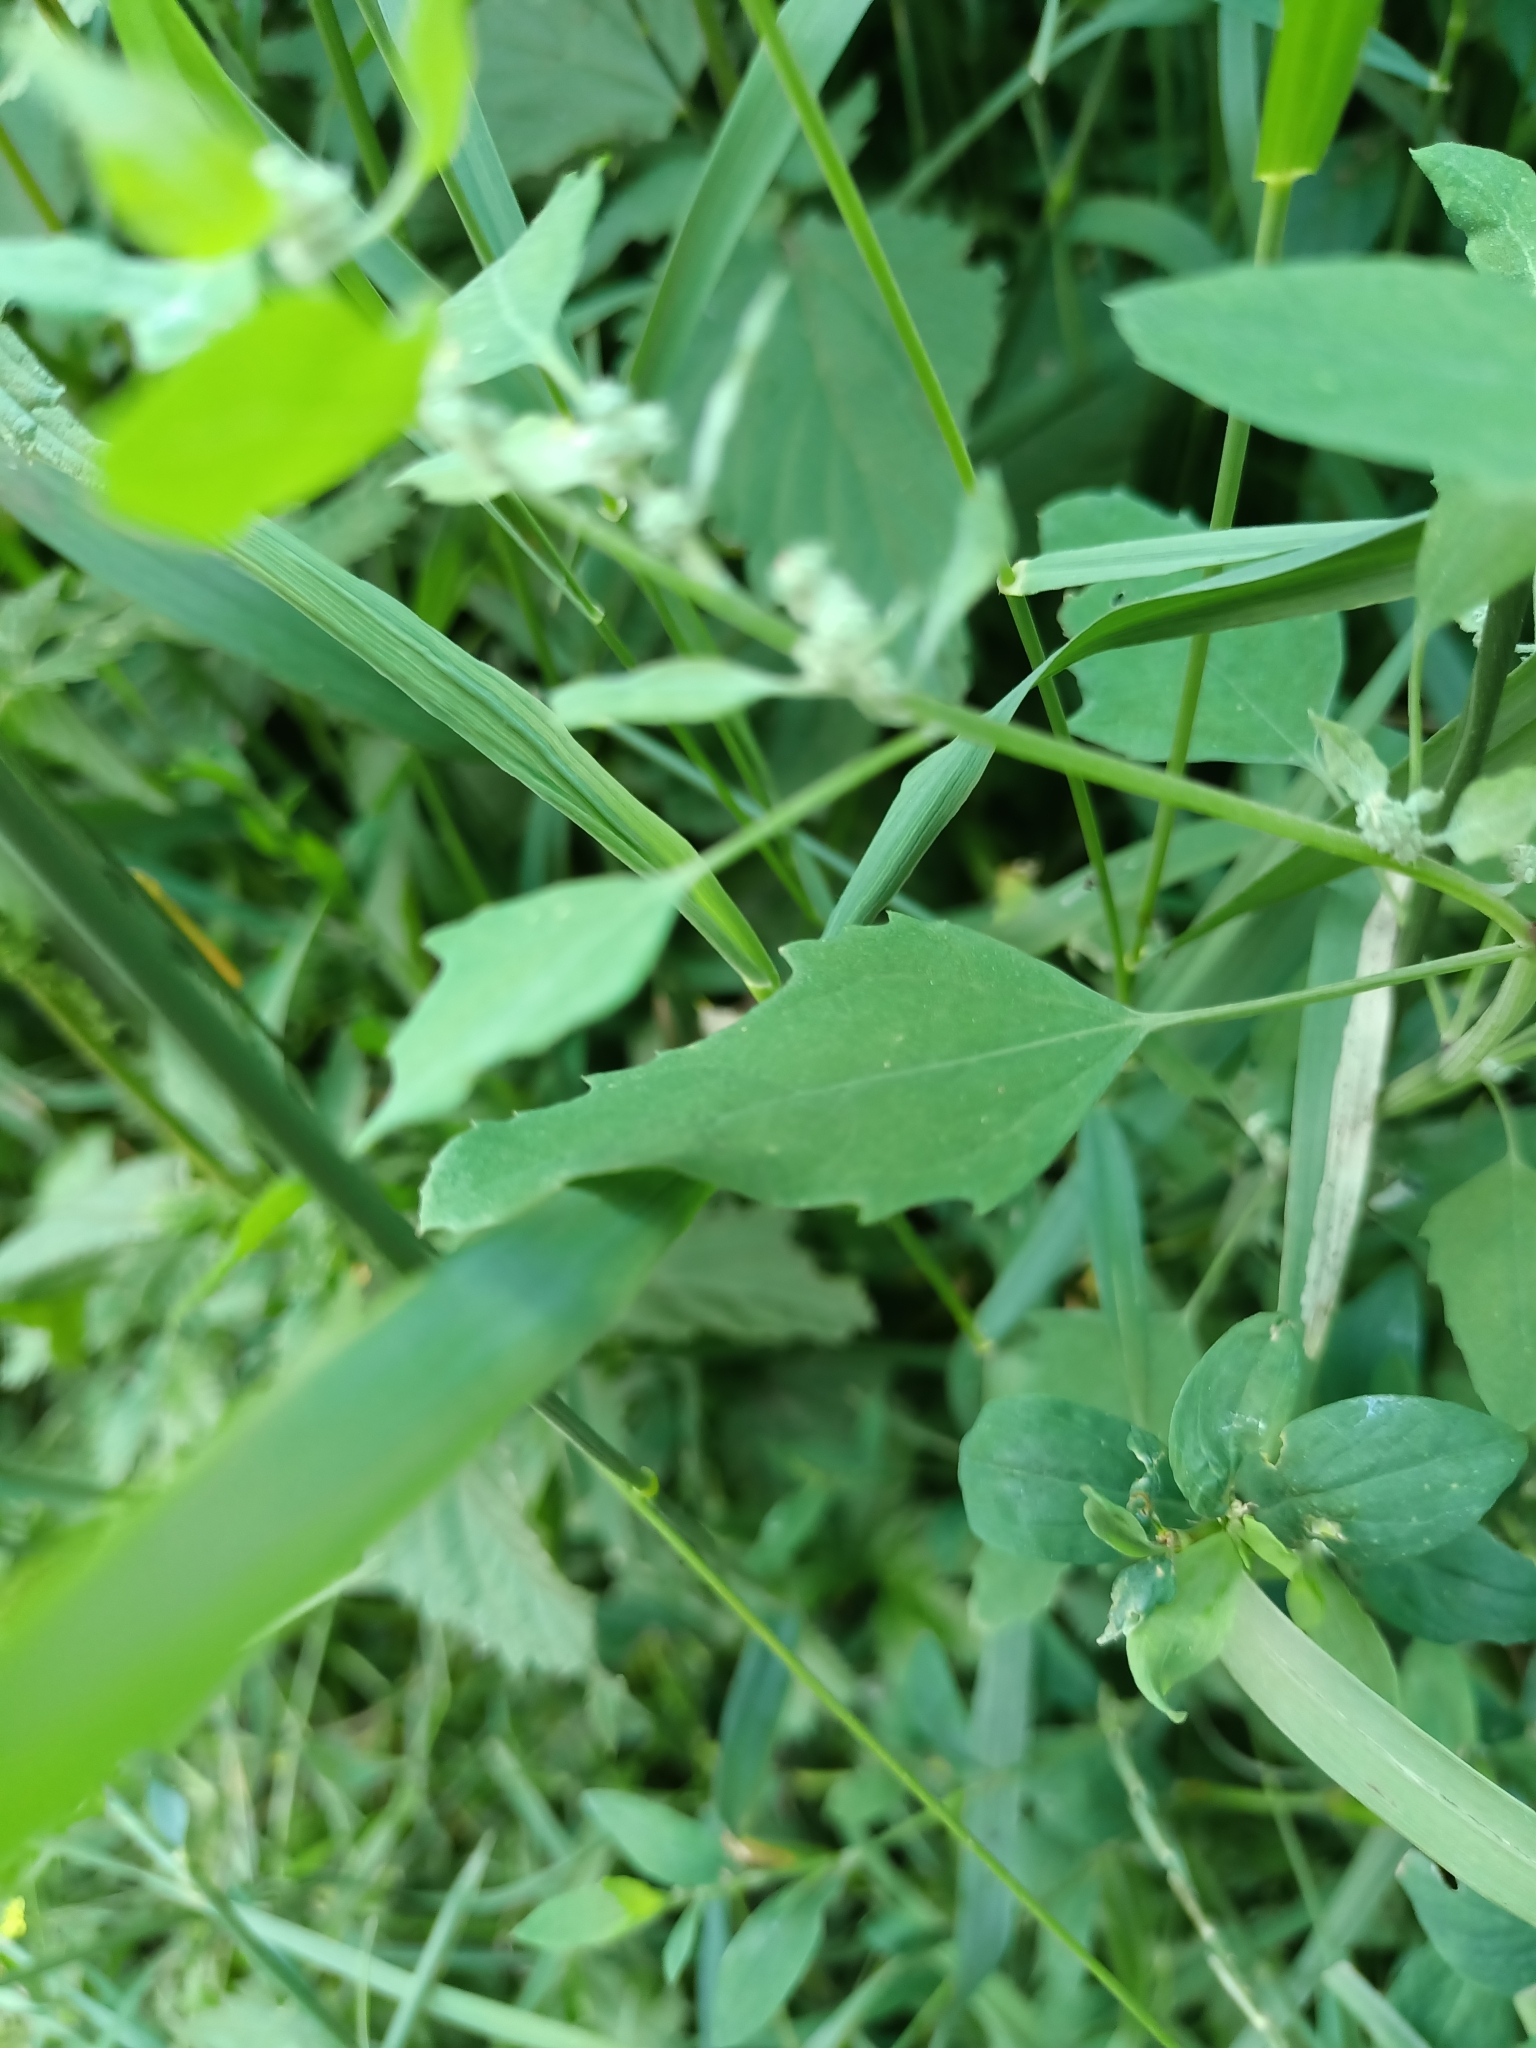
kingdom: Plantae
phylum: Tracheophyta
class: Magnoliopsida
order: Caryophyllales
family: Amaranthaceae
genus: Chenopodium
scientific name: Chenopodium album
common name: Fat-hen
